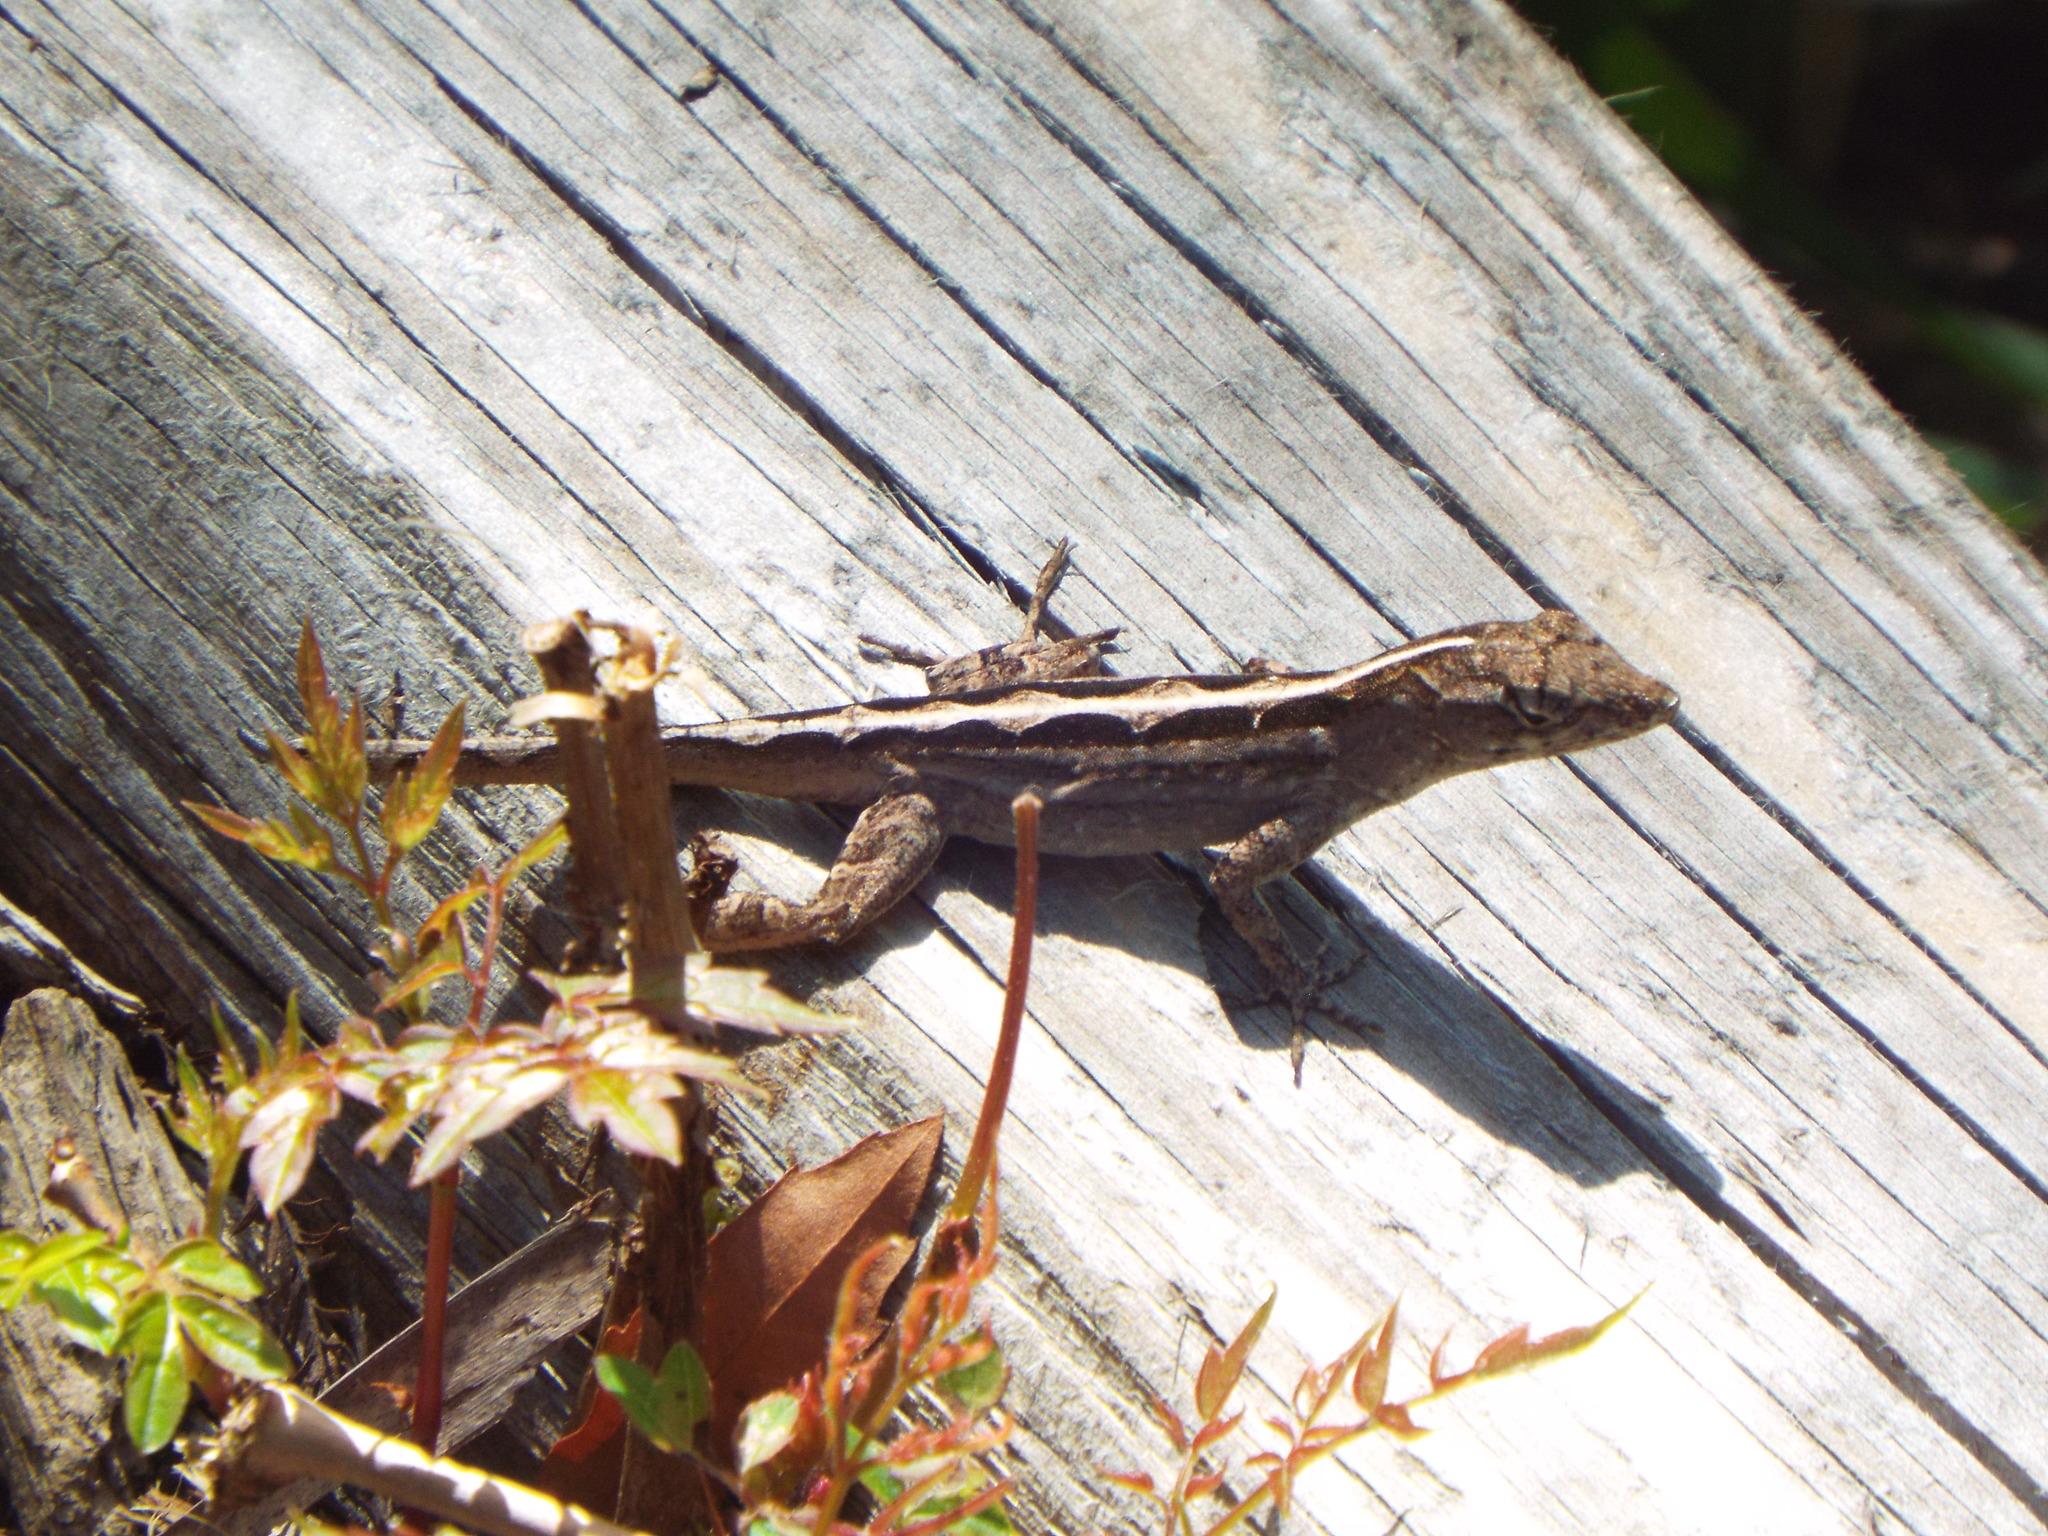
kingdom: Animalia
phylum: Chordata
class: Squamata
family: Dactyloidae
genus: Anolis
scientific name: Anolis sagrei
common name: Brown anole
